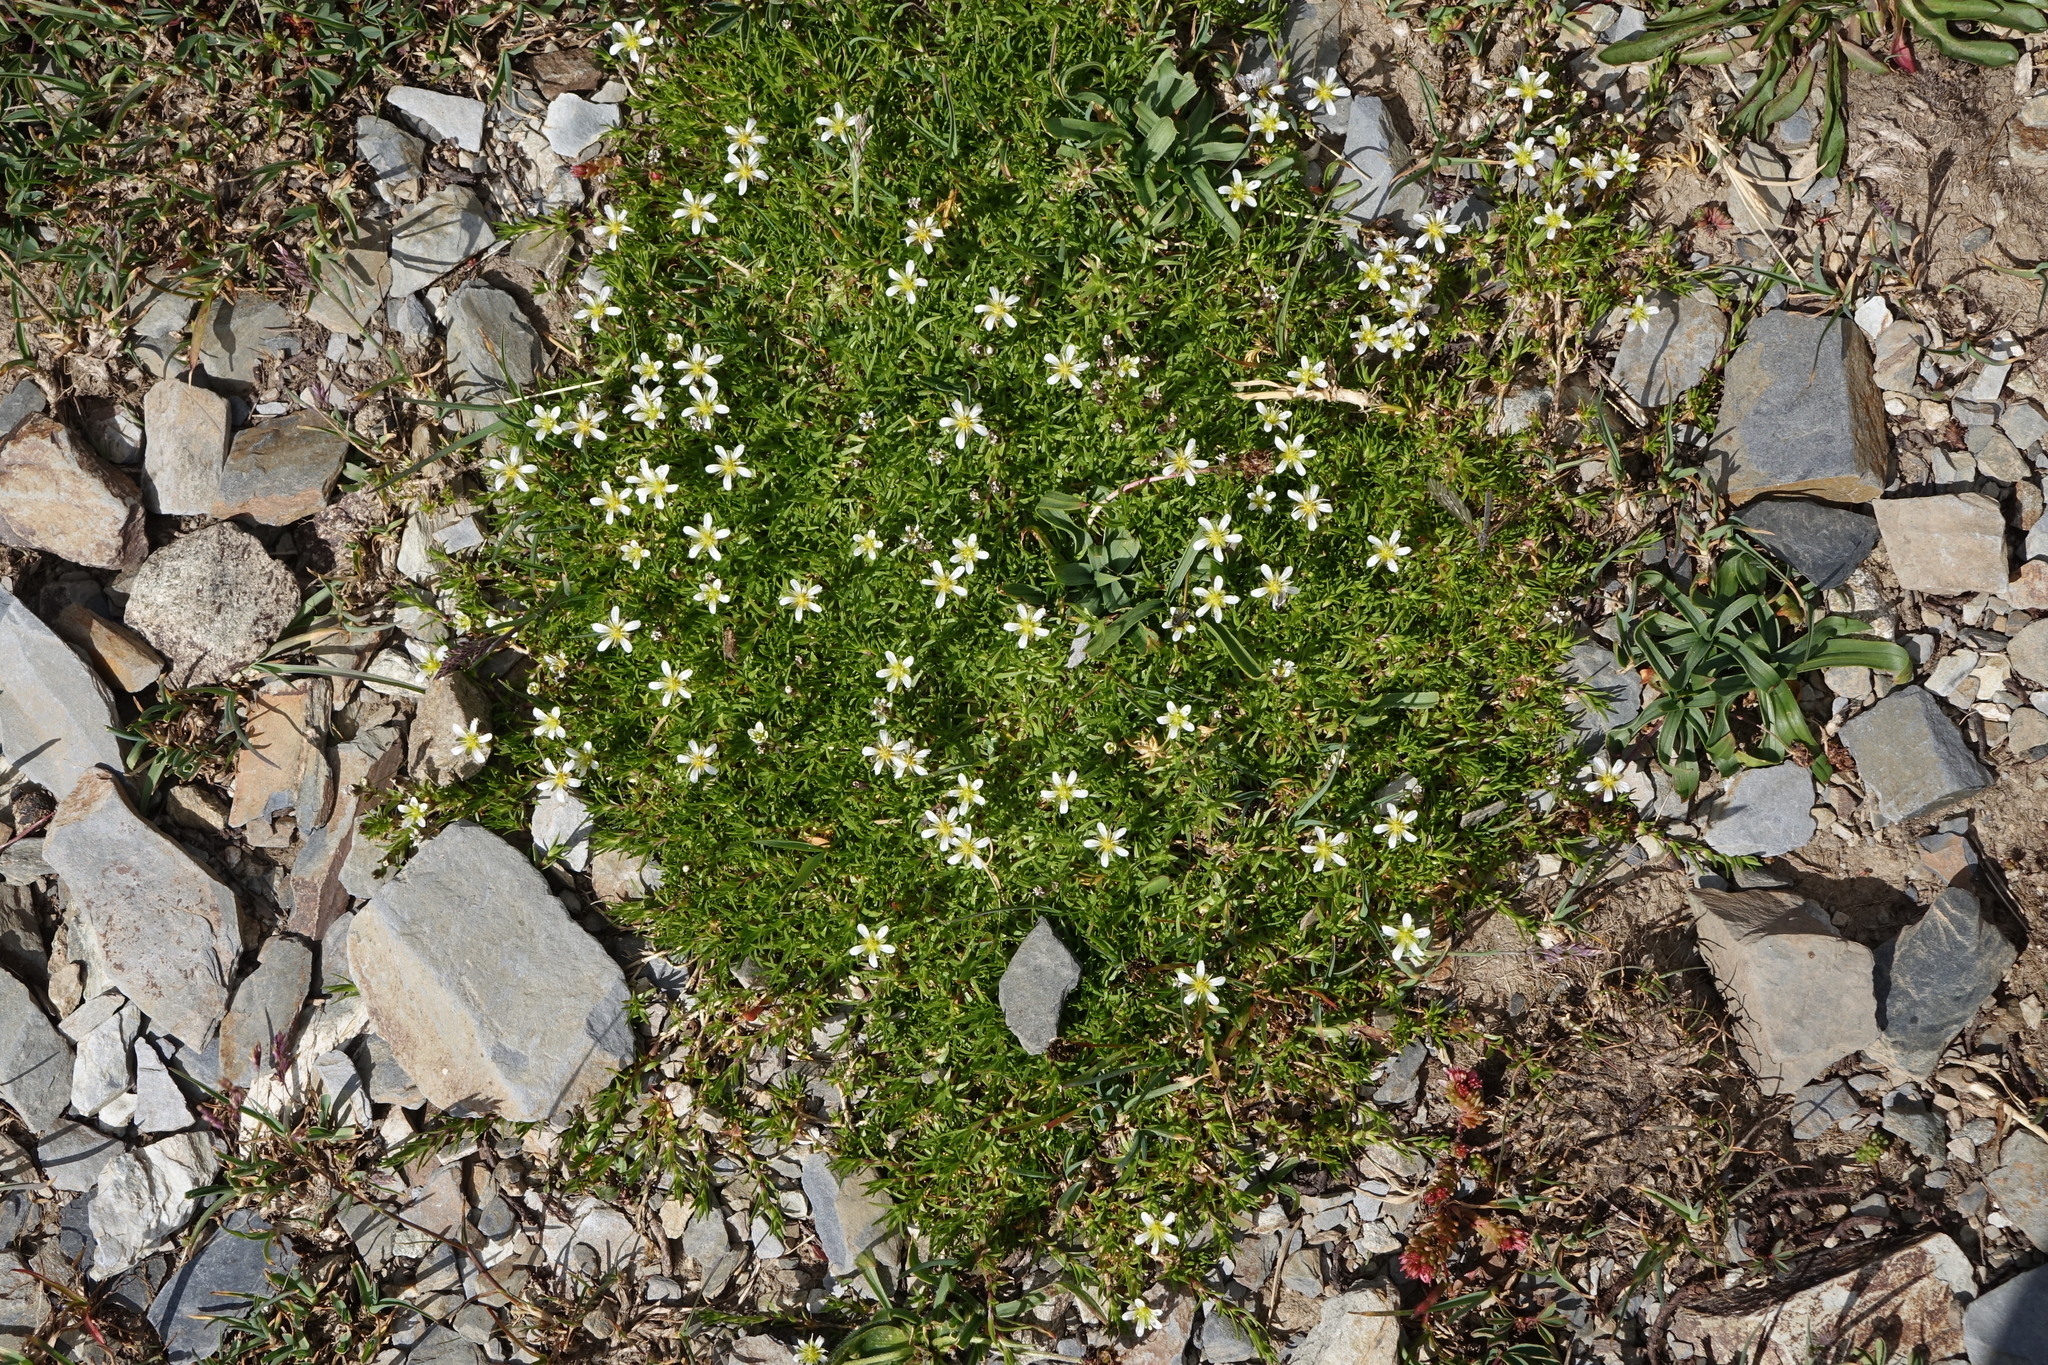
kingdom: Plantae
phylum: Tracheophyta
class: Magnoliopsida
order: Caryophyllales
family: Caryophyllaceae
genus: Pseudocherleria
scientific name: Pseudocherleria aizoides
